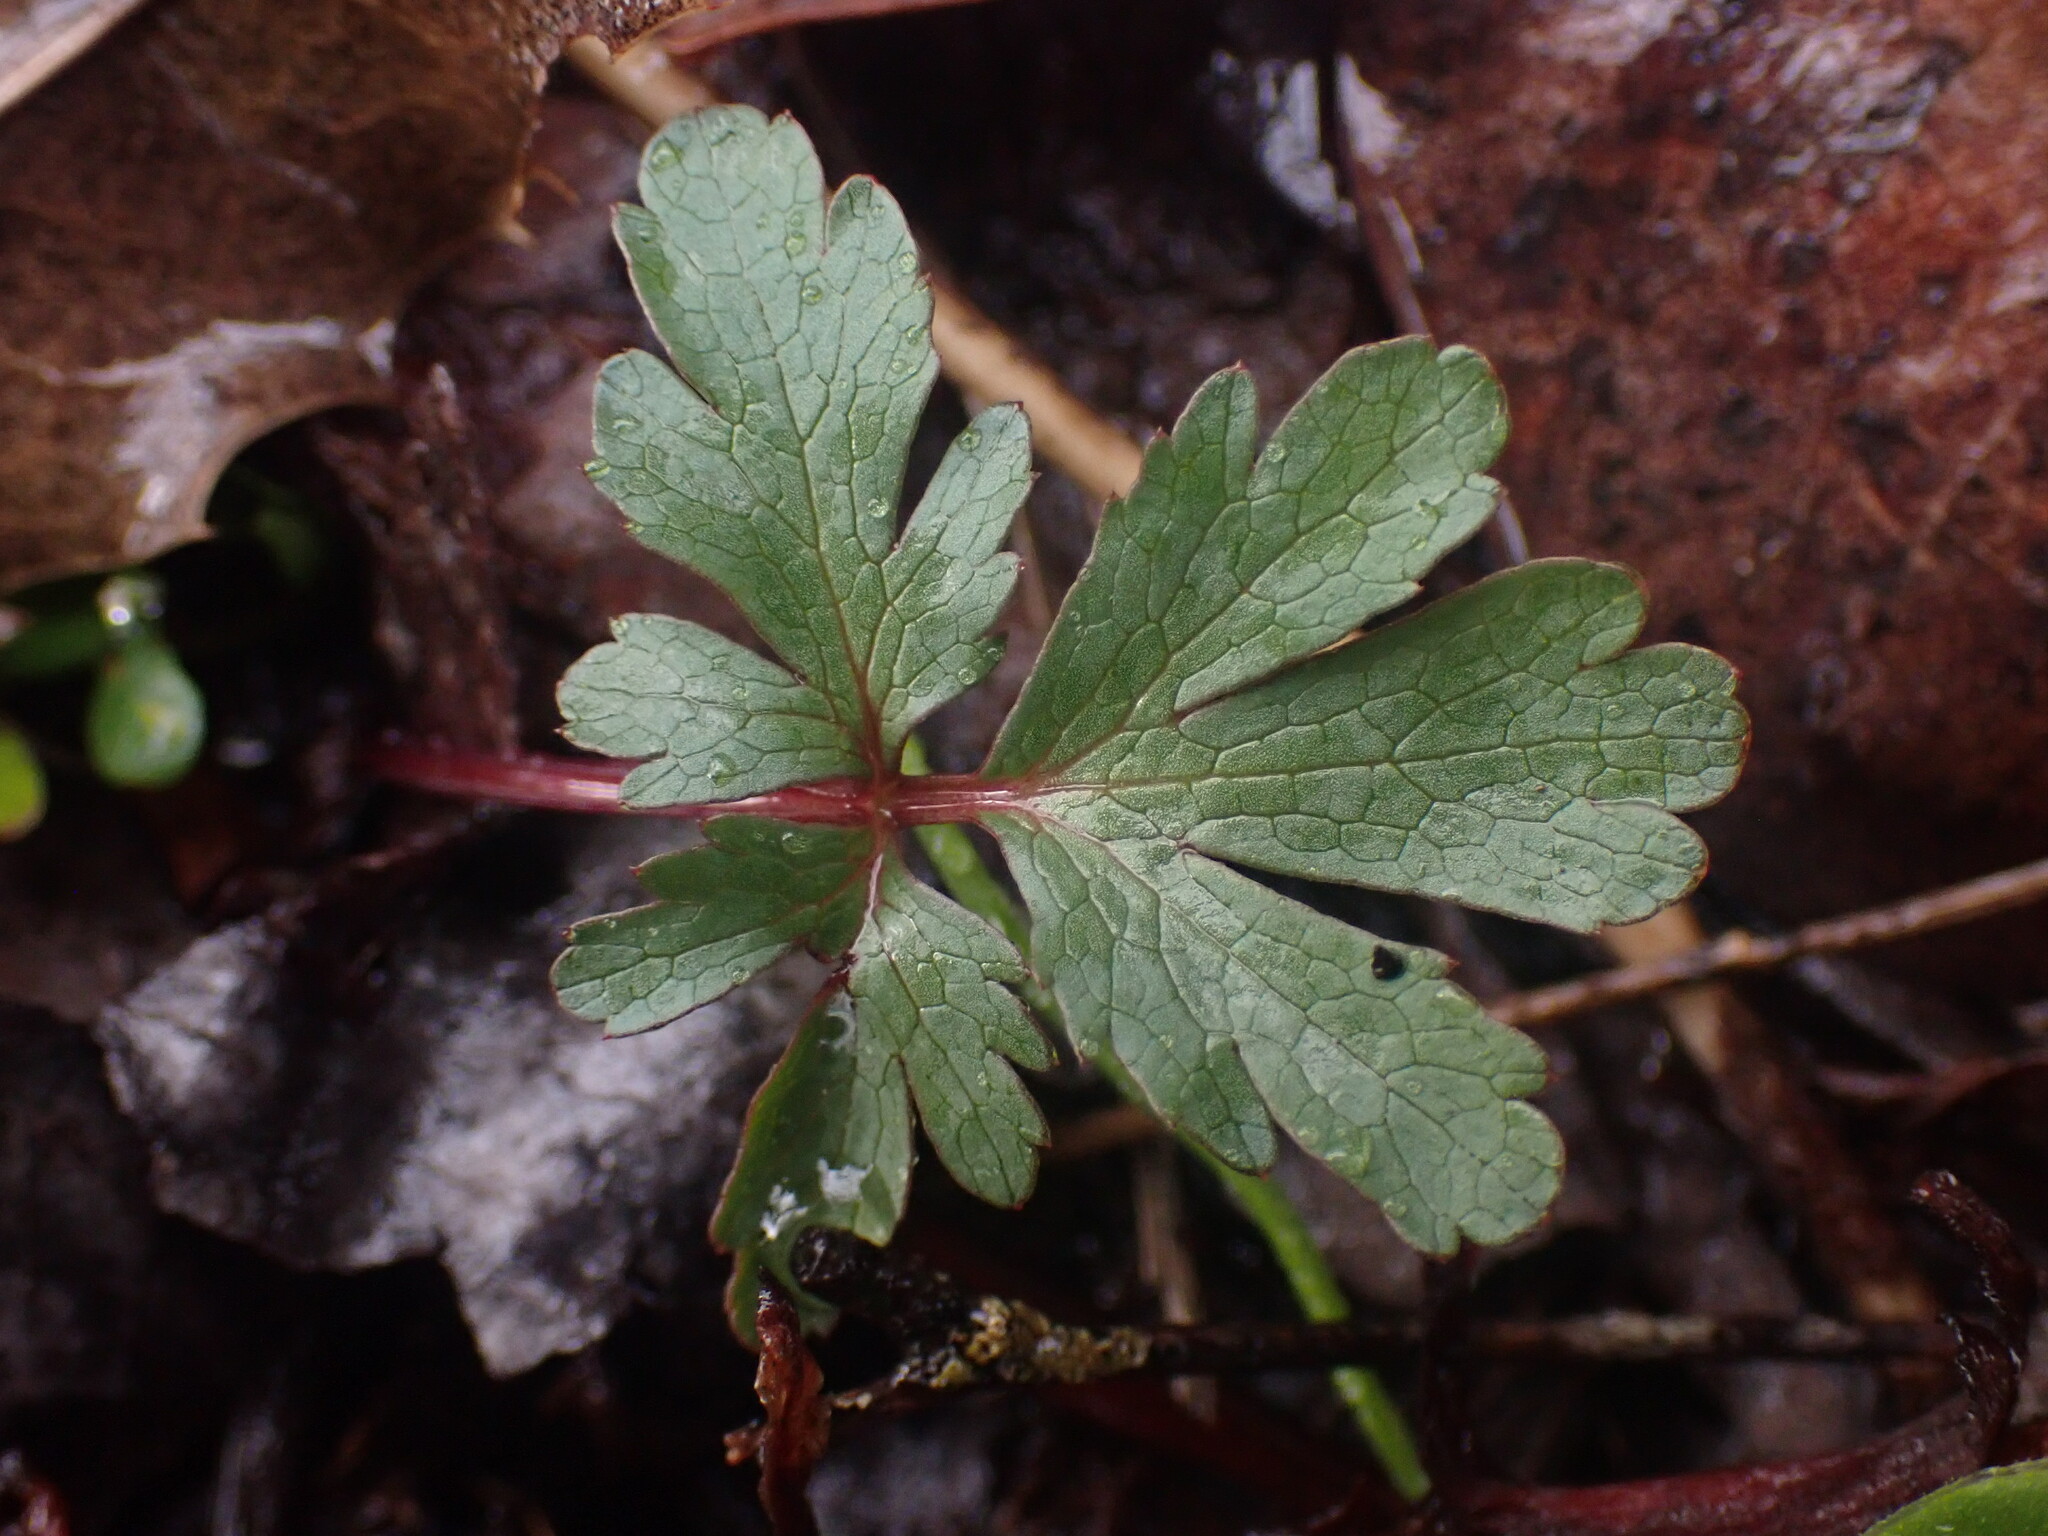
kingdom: Plantae
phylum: Tracheophyta
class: Magnoliopsida
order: Apiales
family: Apiaceae
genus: Sanicula
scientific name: Sanicula graveolens
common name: Sierra sanicle
